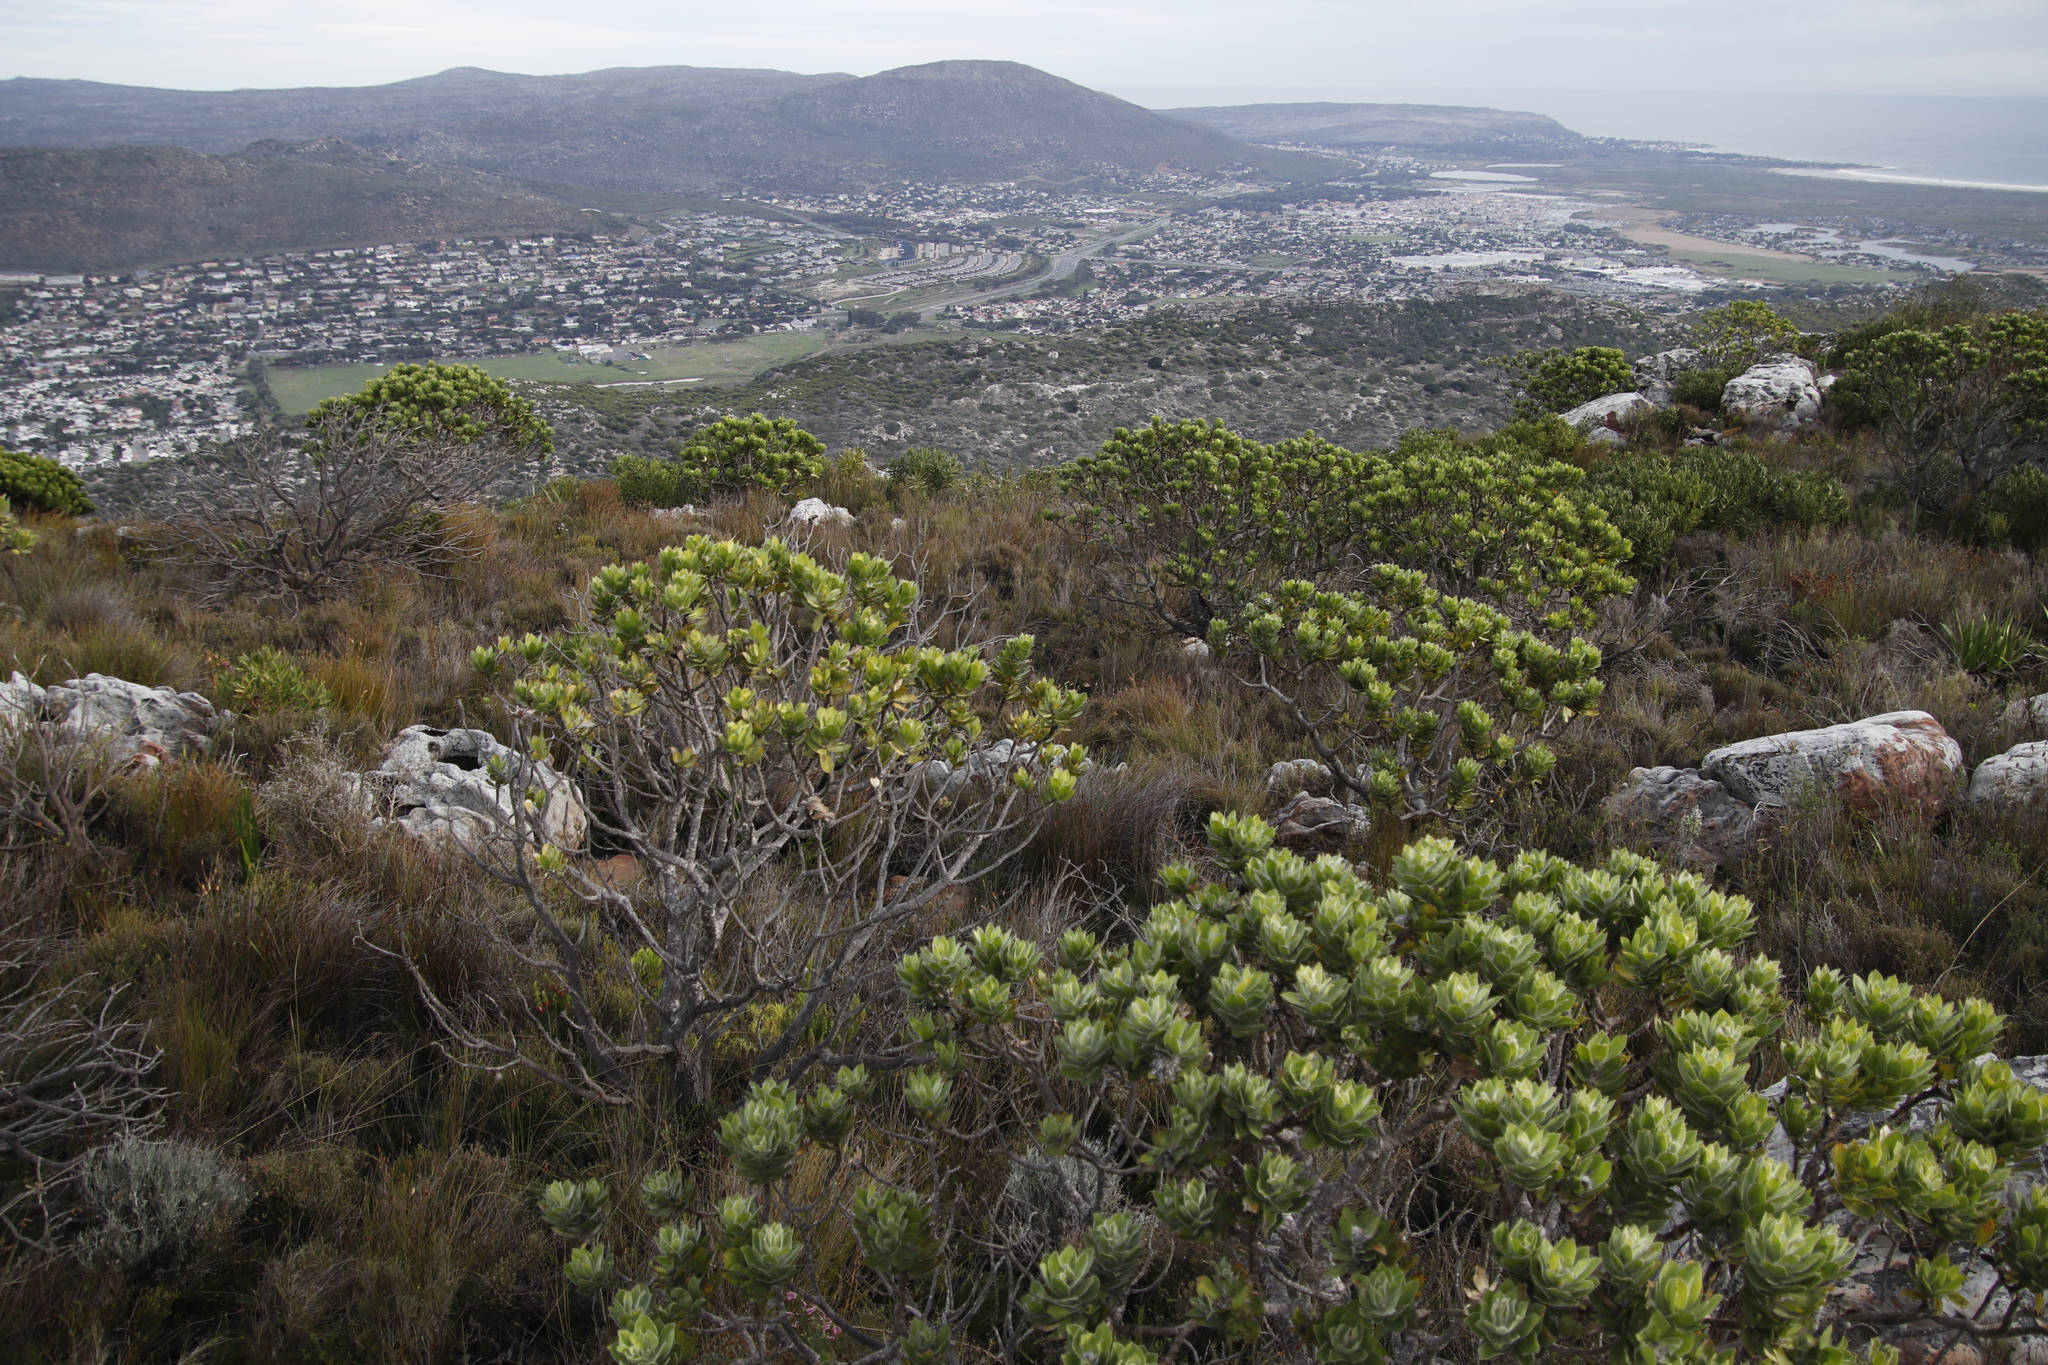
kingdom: Plantae
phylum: Tracheophyta
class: Magnoliopsida
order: Proteales
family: Proteaceae
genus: Leucospermum
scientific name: Leucospermum conocarpodendron
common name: Tree pincushion
